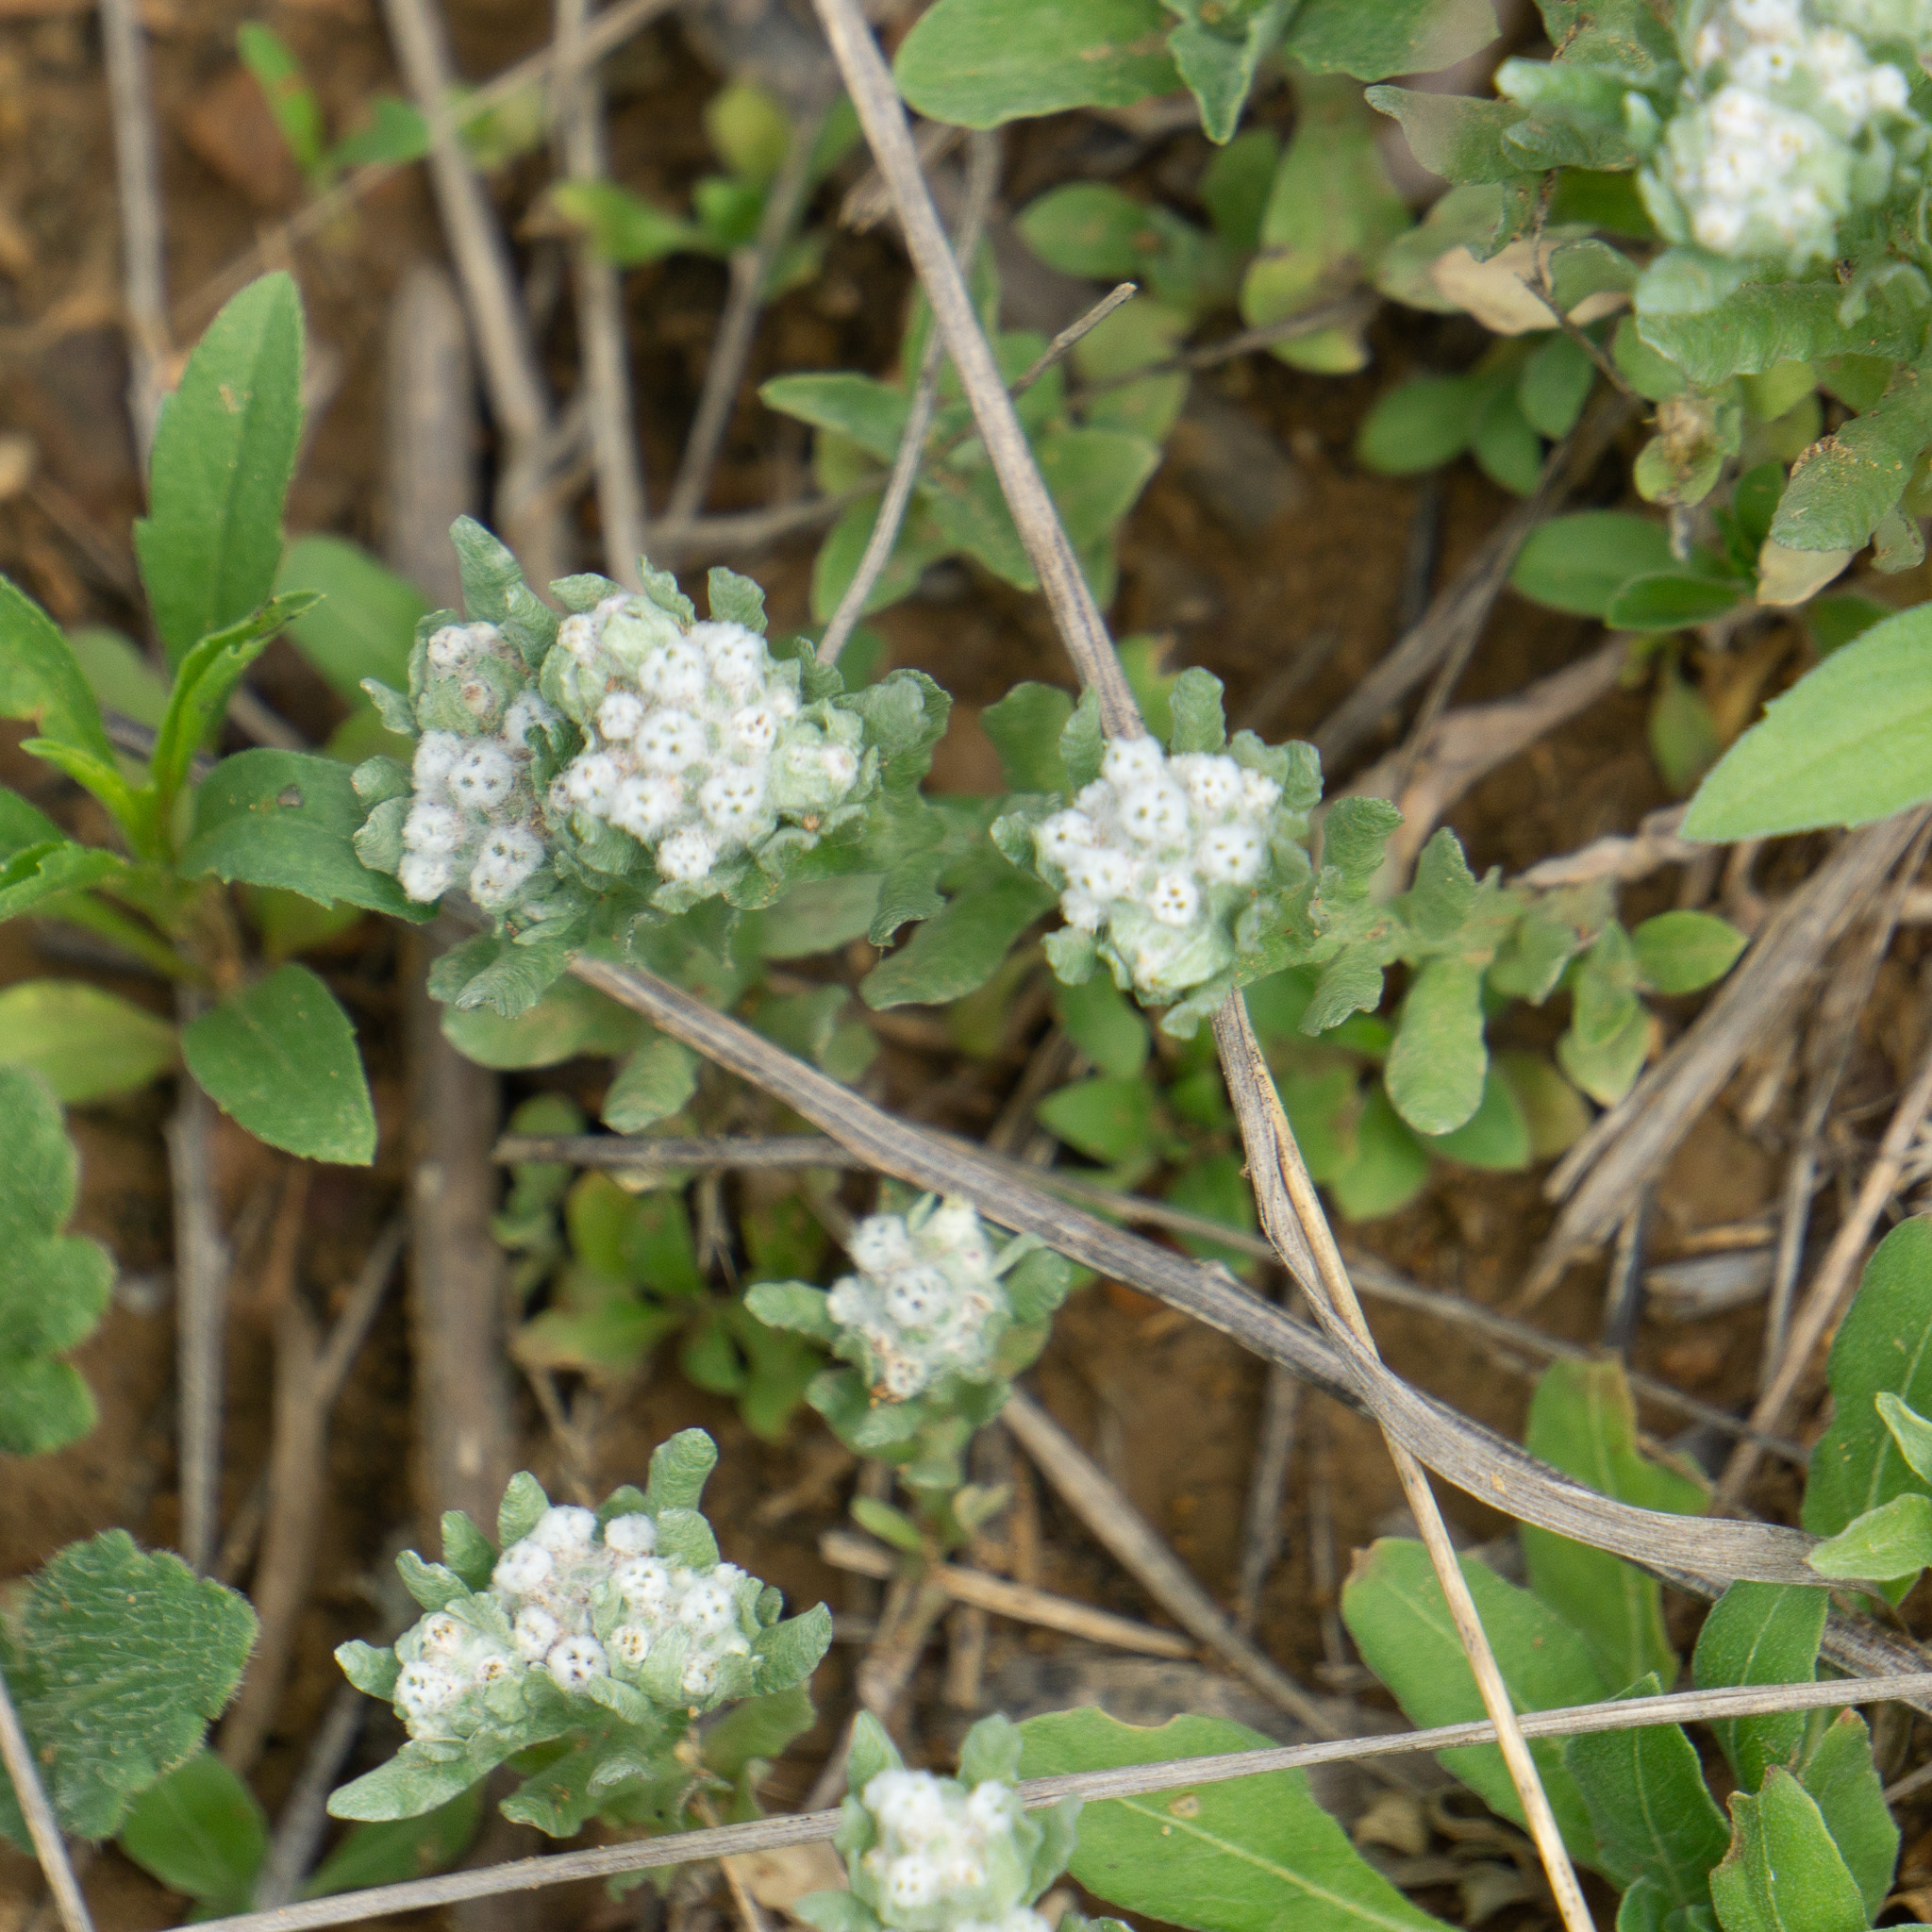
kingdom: Plantae
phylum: Tracheophyta
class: Magnoliopsida
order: Asterales
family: Asteraceae
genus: Diaperia
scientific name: Diaperia verna
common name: Many-stem rabbit-tobacco
